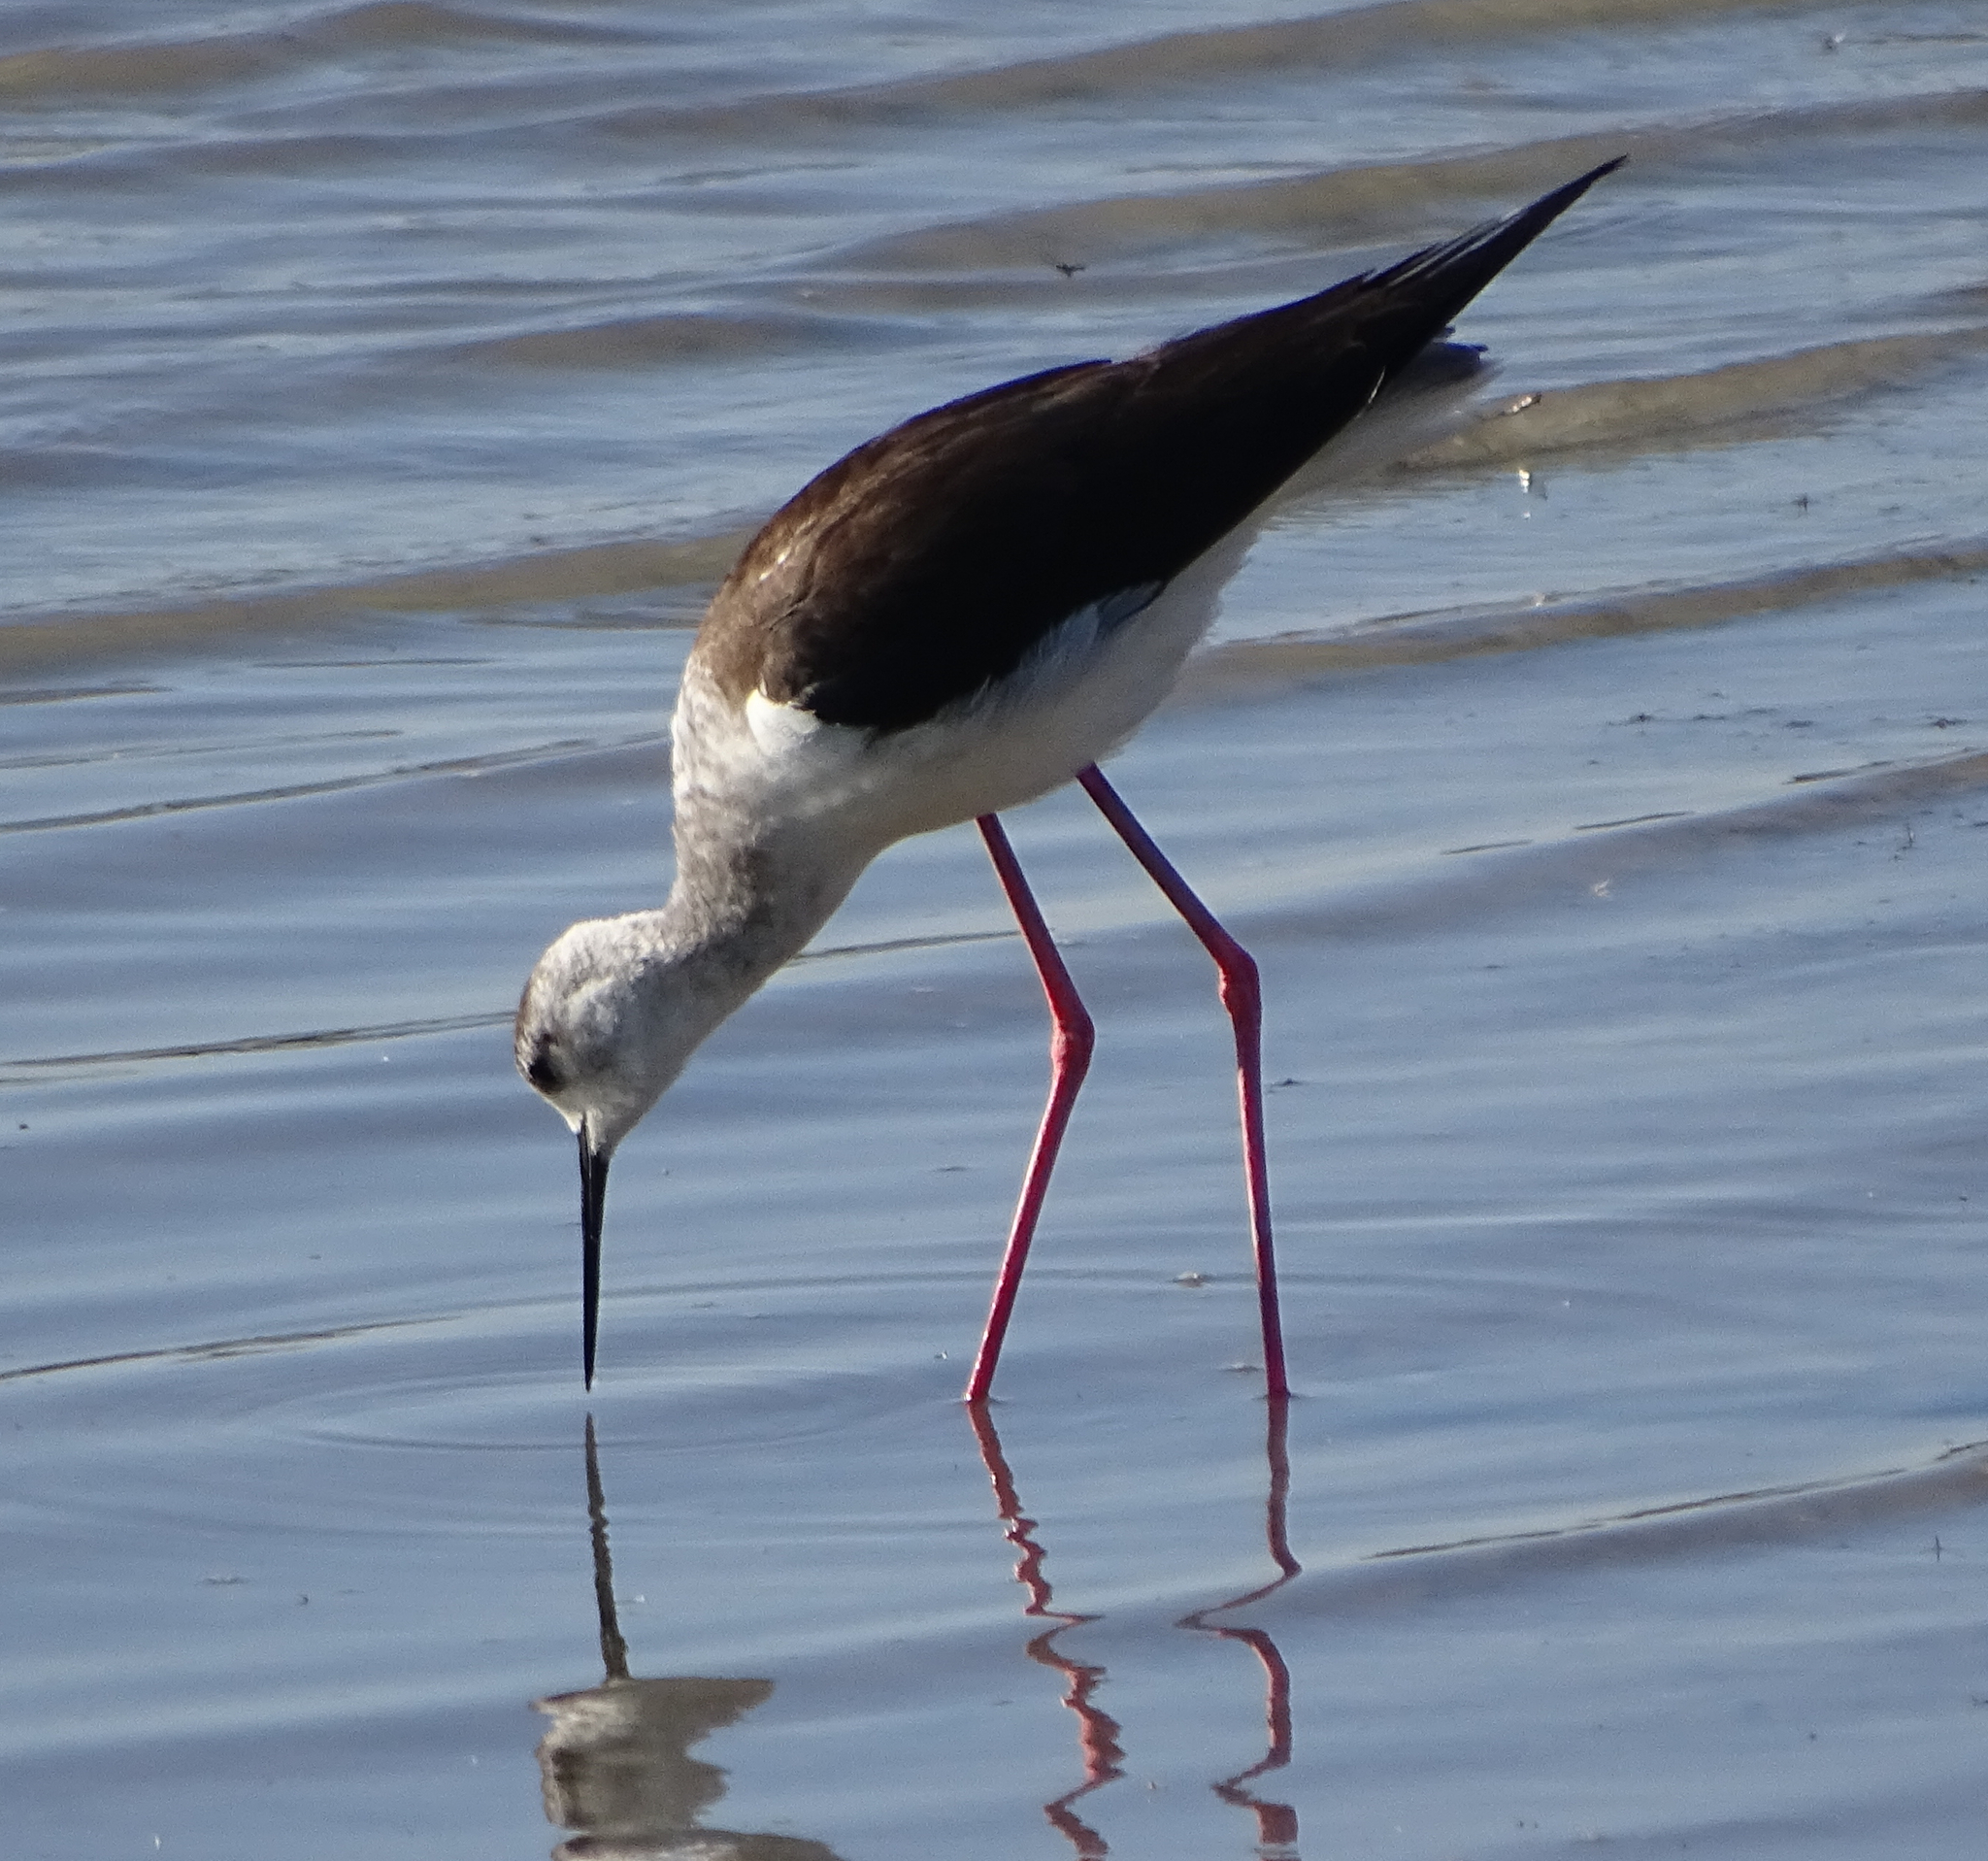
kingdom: Animalia
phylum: Chordata
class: Aves
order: Charadriiformes
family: Recurvirostridae
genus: Himantopus
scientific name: Himantopus himantopus
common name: Black-winged stilt
